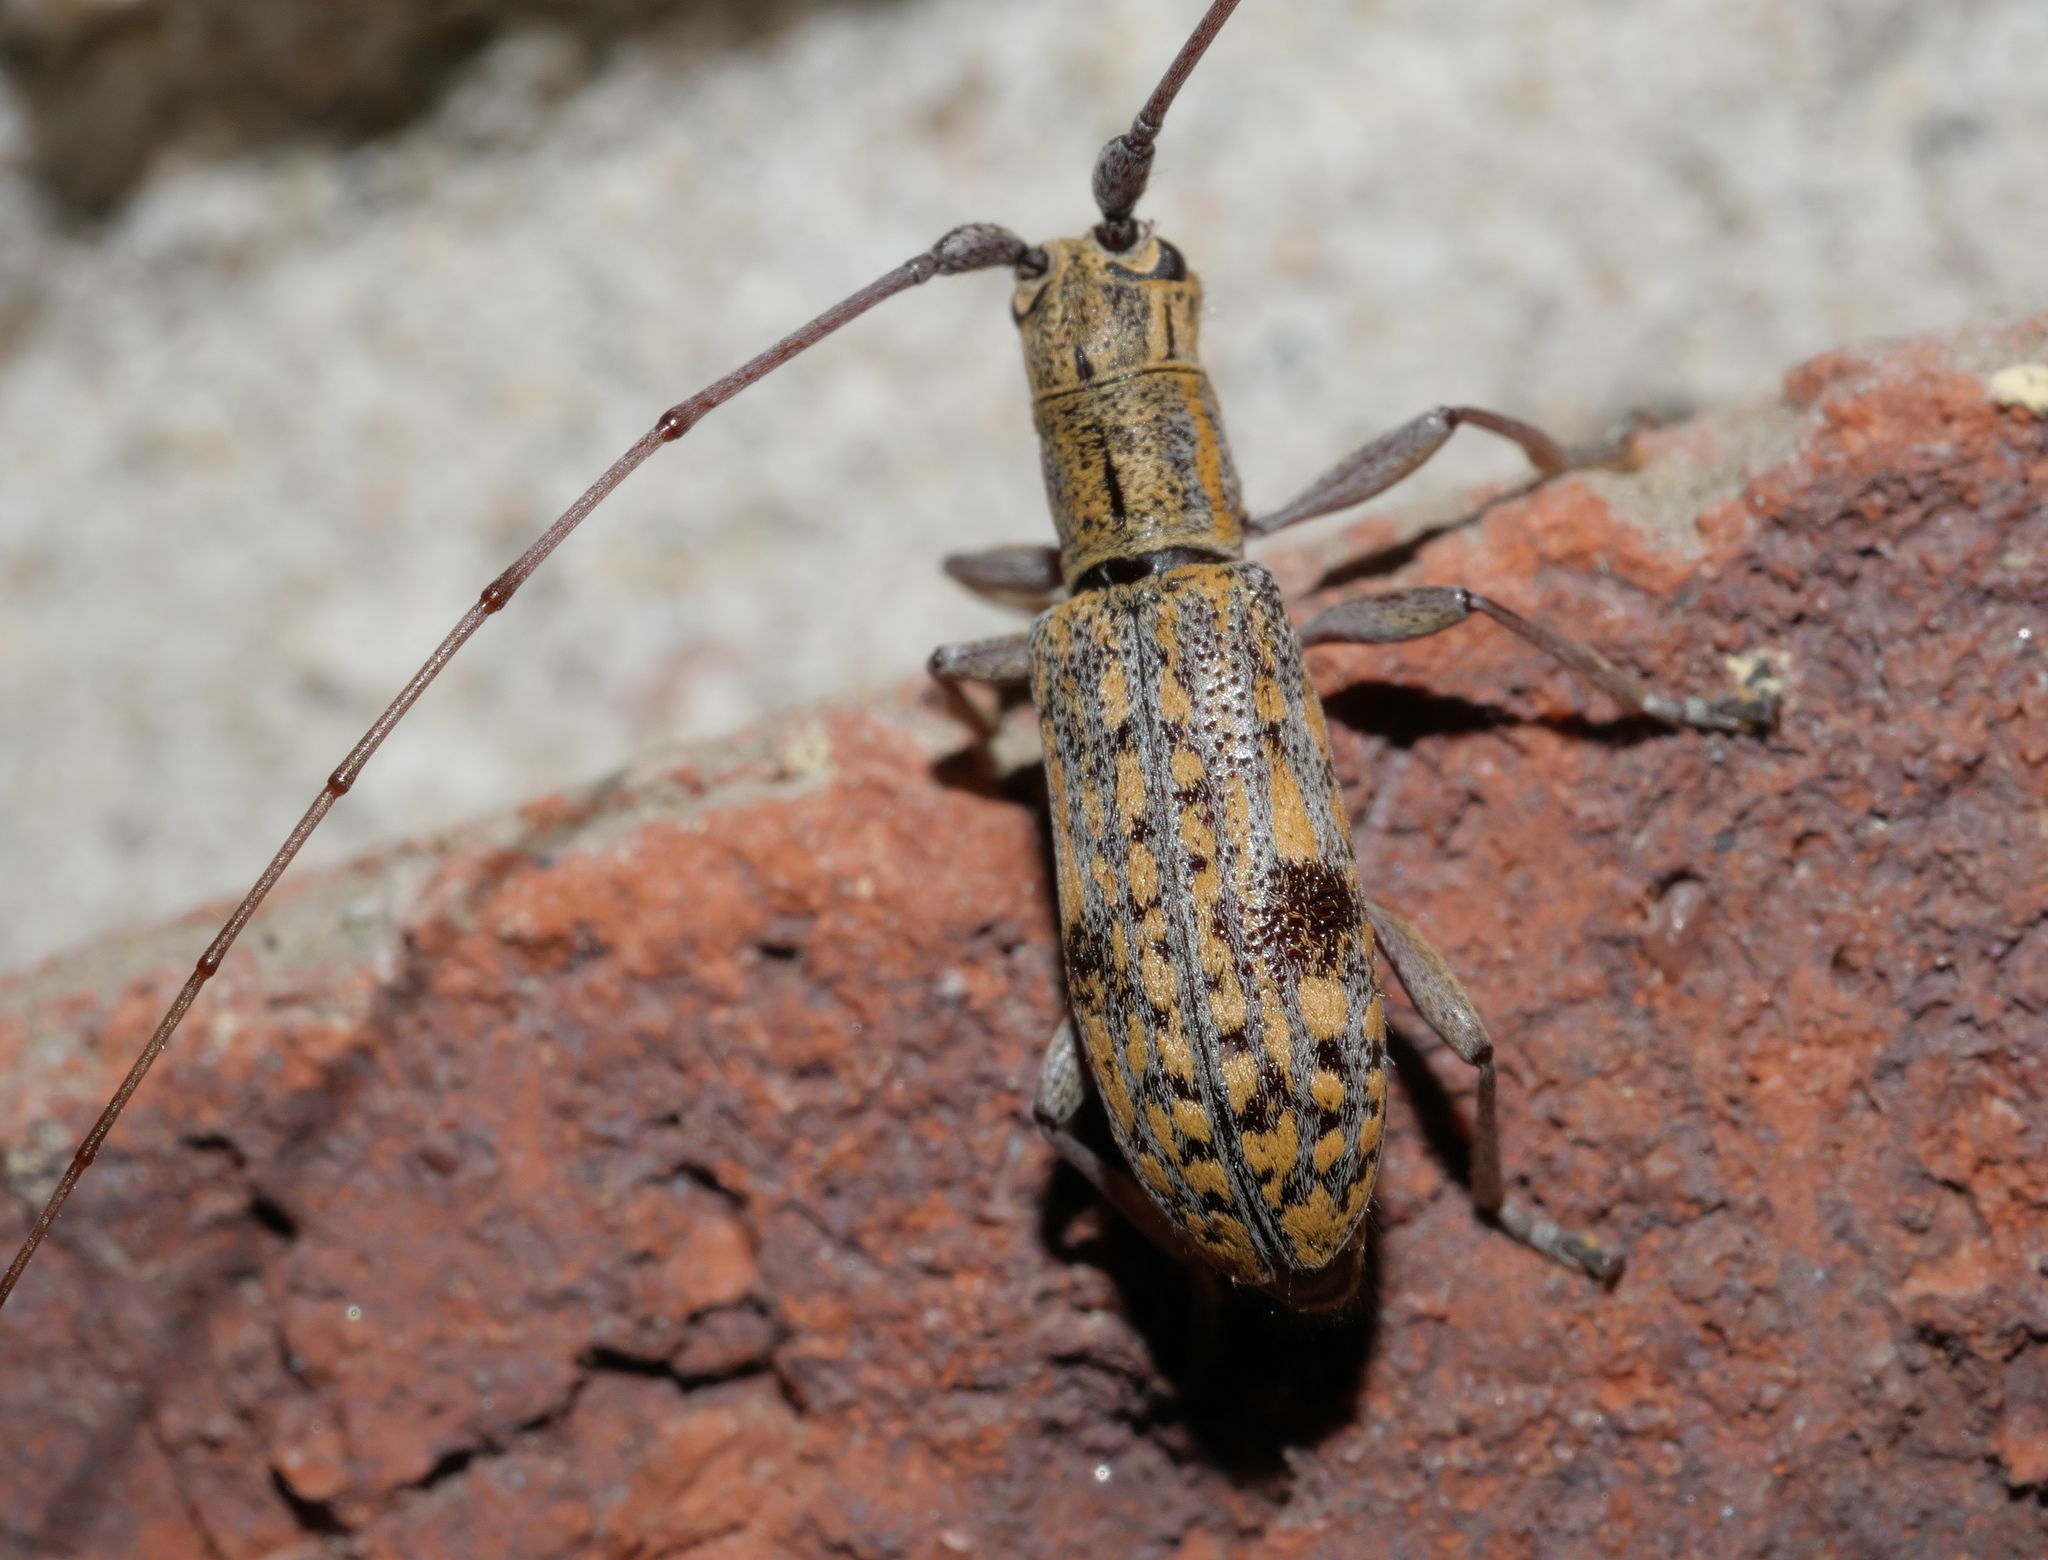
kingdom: Animalia
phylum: Arthropoda
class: Insecta
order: Coleoptera
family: Cerambycidae
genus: Dorcaschema
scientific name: Dorcaschema alternatum
